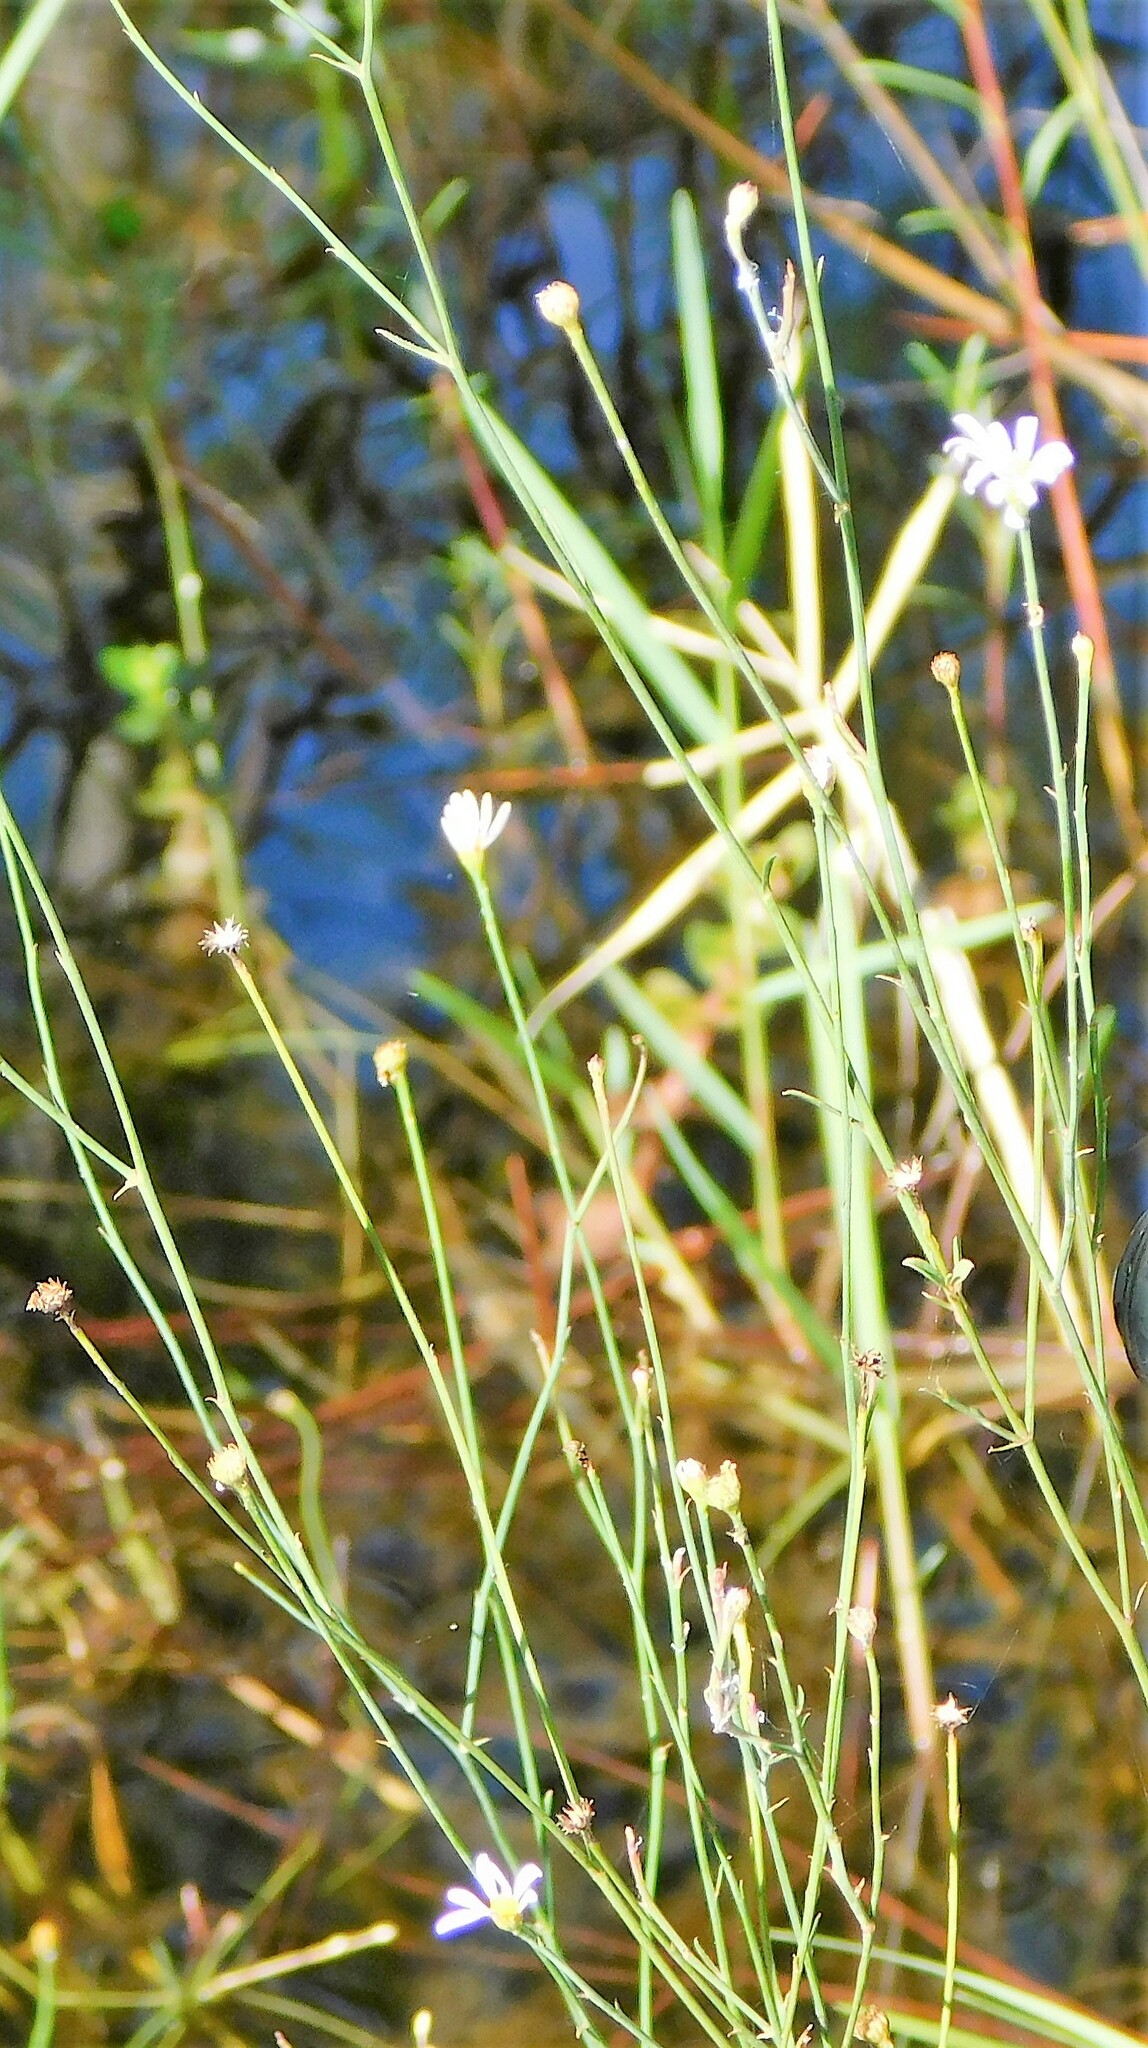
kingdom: Plantae
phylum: Tracheophyta
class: Magnoliopsida
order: Asterales
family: Asteraceae
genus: Boltonia
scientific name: Boltonia diffusa
